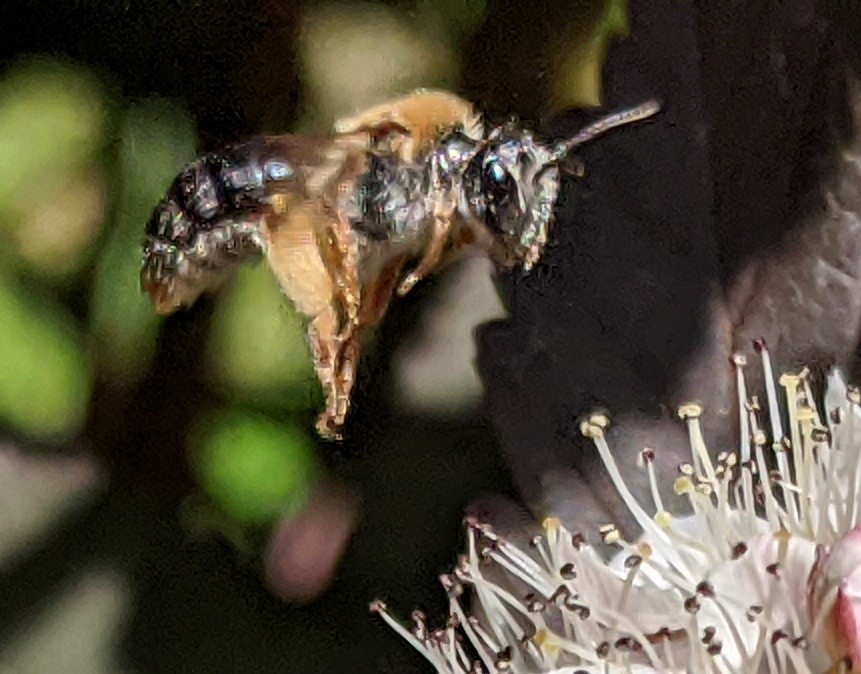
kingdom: Animalia
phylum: Arthropoda
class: Insecta
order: Hymenoptera
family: Andrenidae
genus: Andrena
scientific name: Andrena haemorrhoa
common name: Early mining bee
